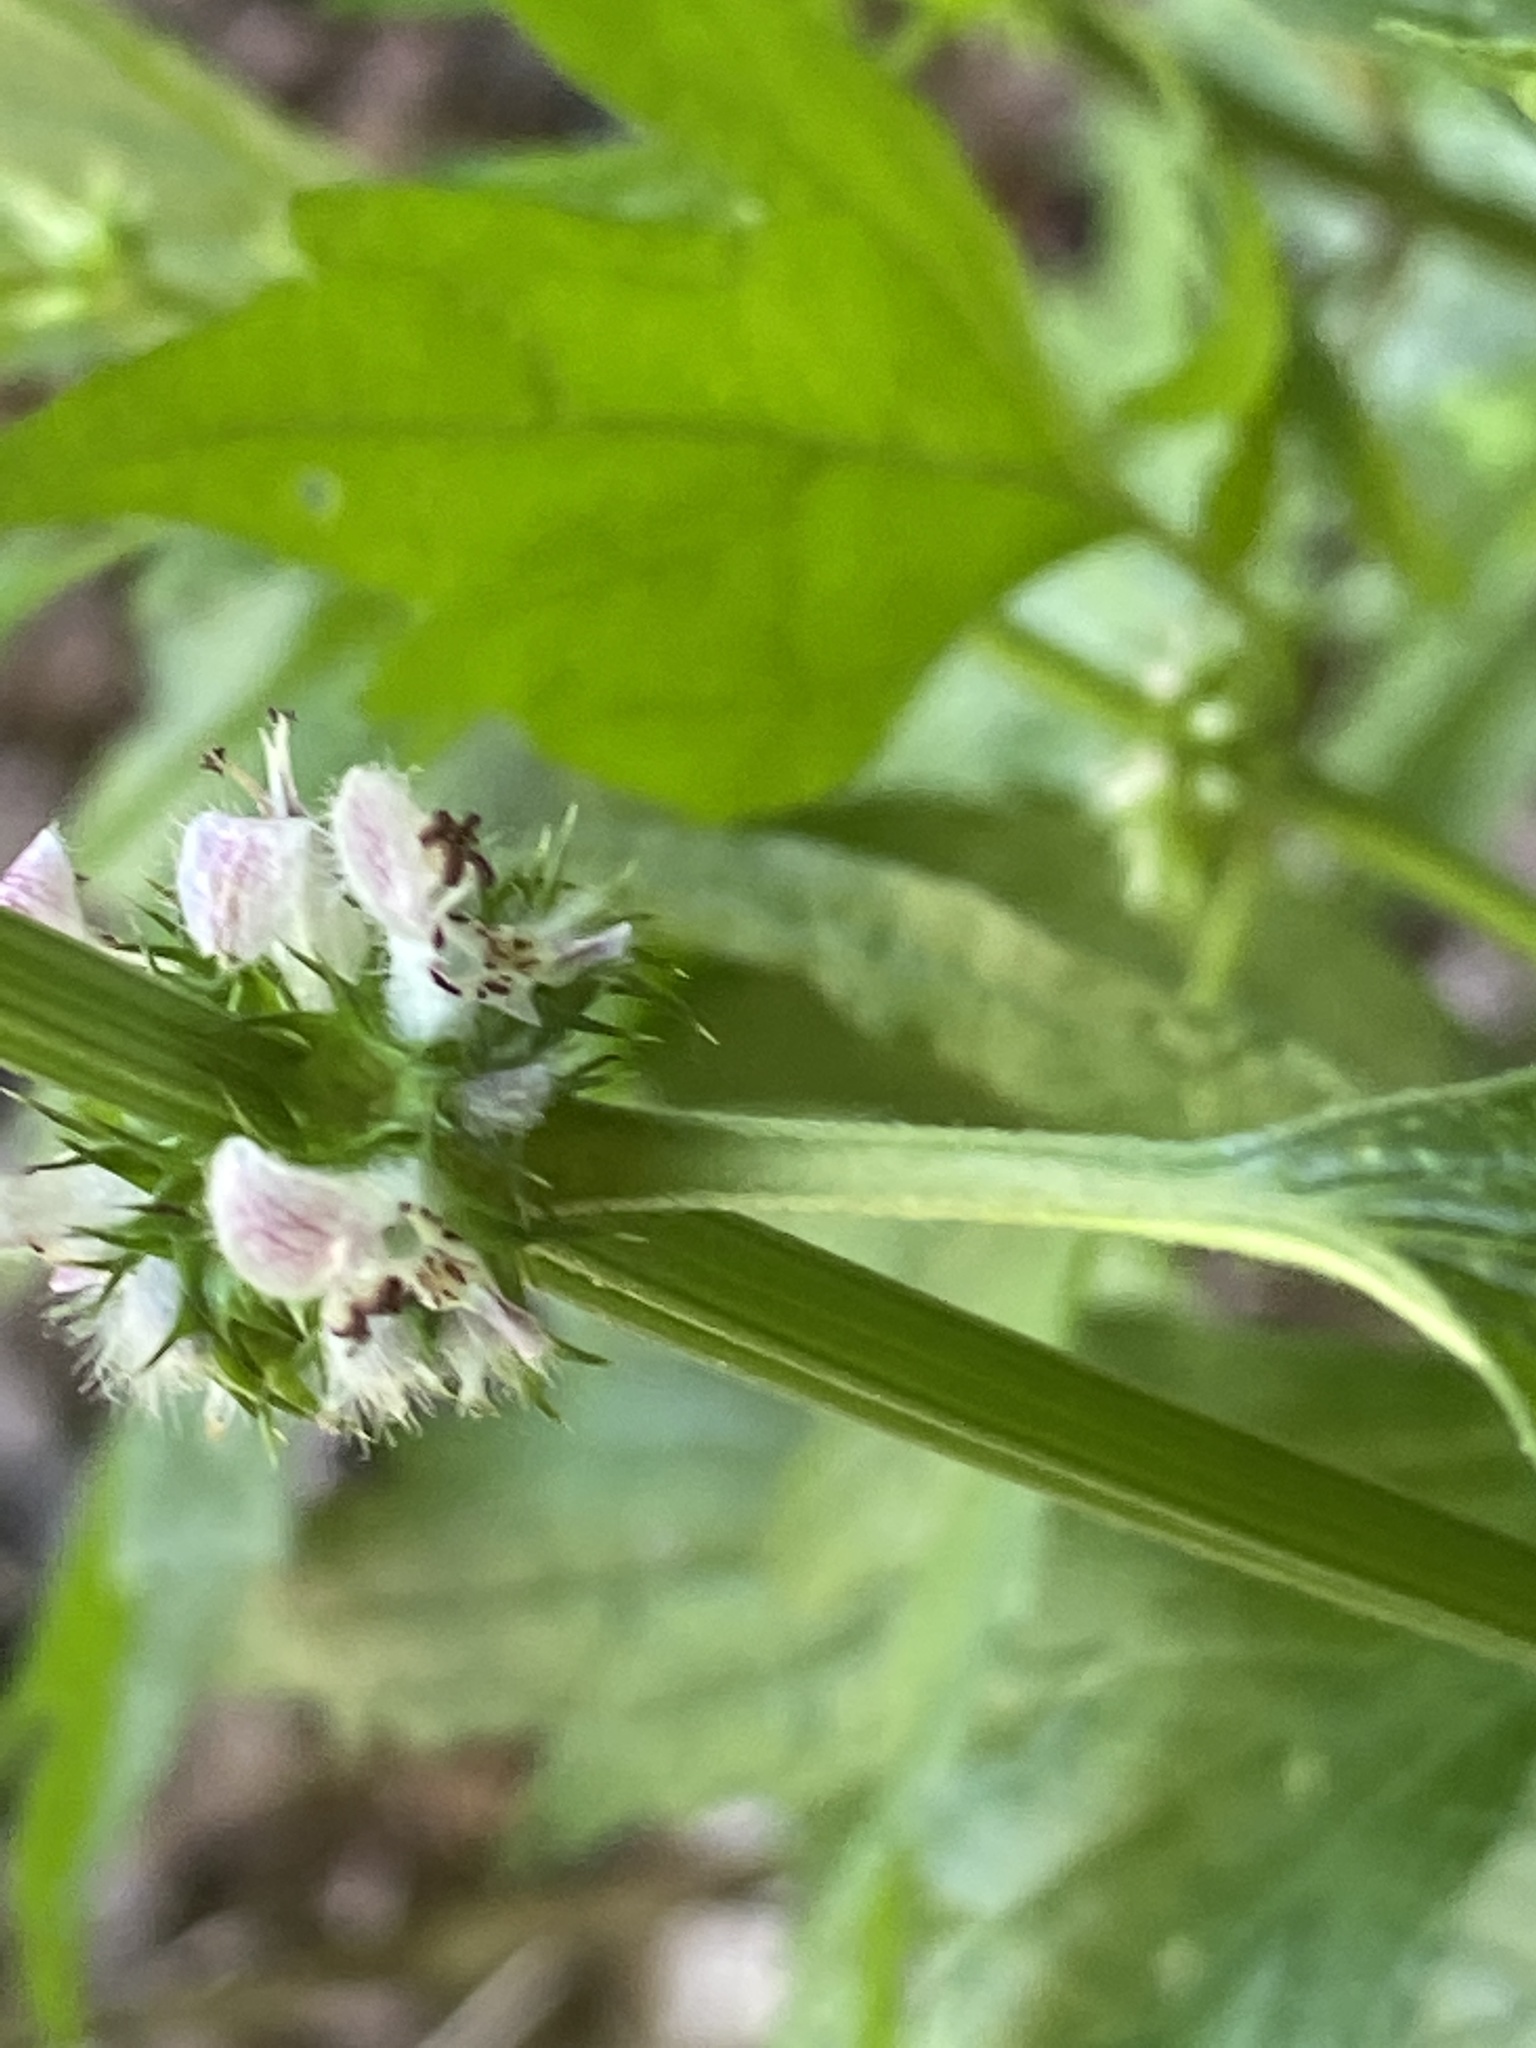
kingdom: Plantae
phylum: Tracheophyta
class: Magnoliopsida
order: Lamiales
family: Lamiaceae
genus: Leonurus
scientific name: Leonurus cardiaca
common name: Motherwort
